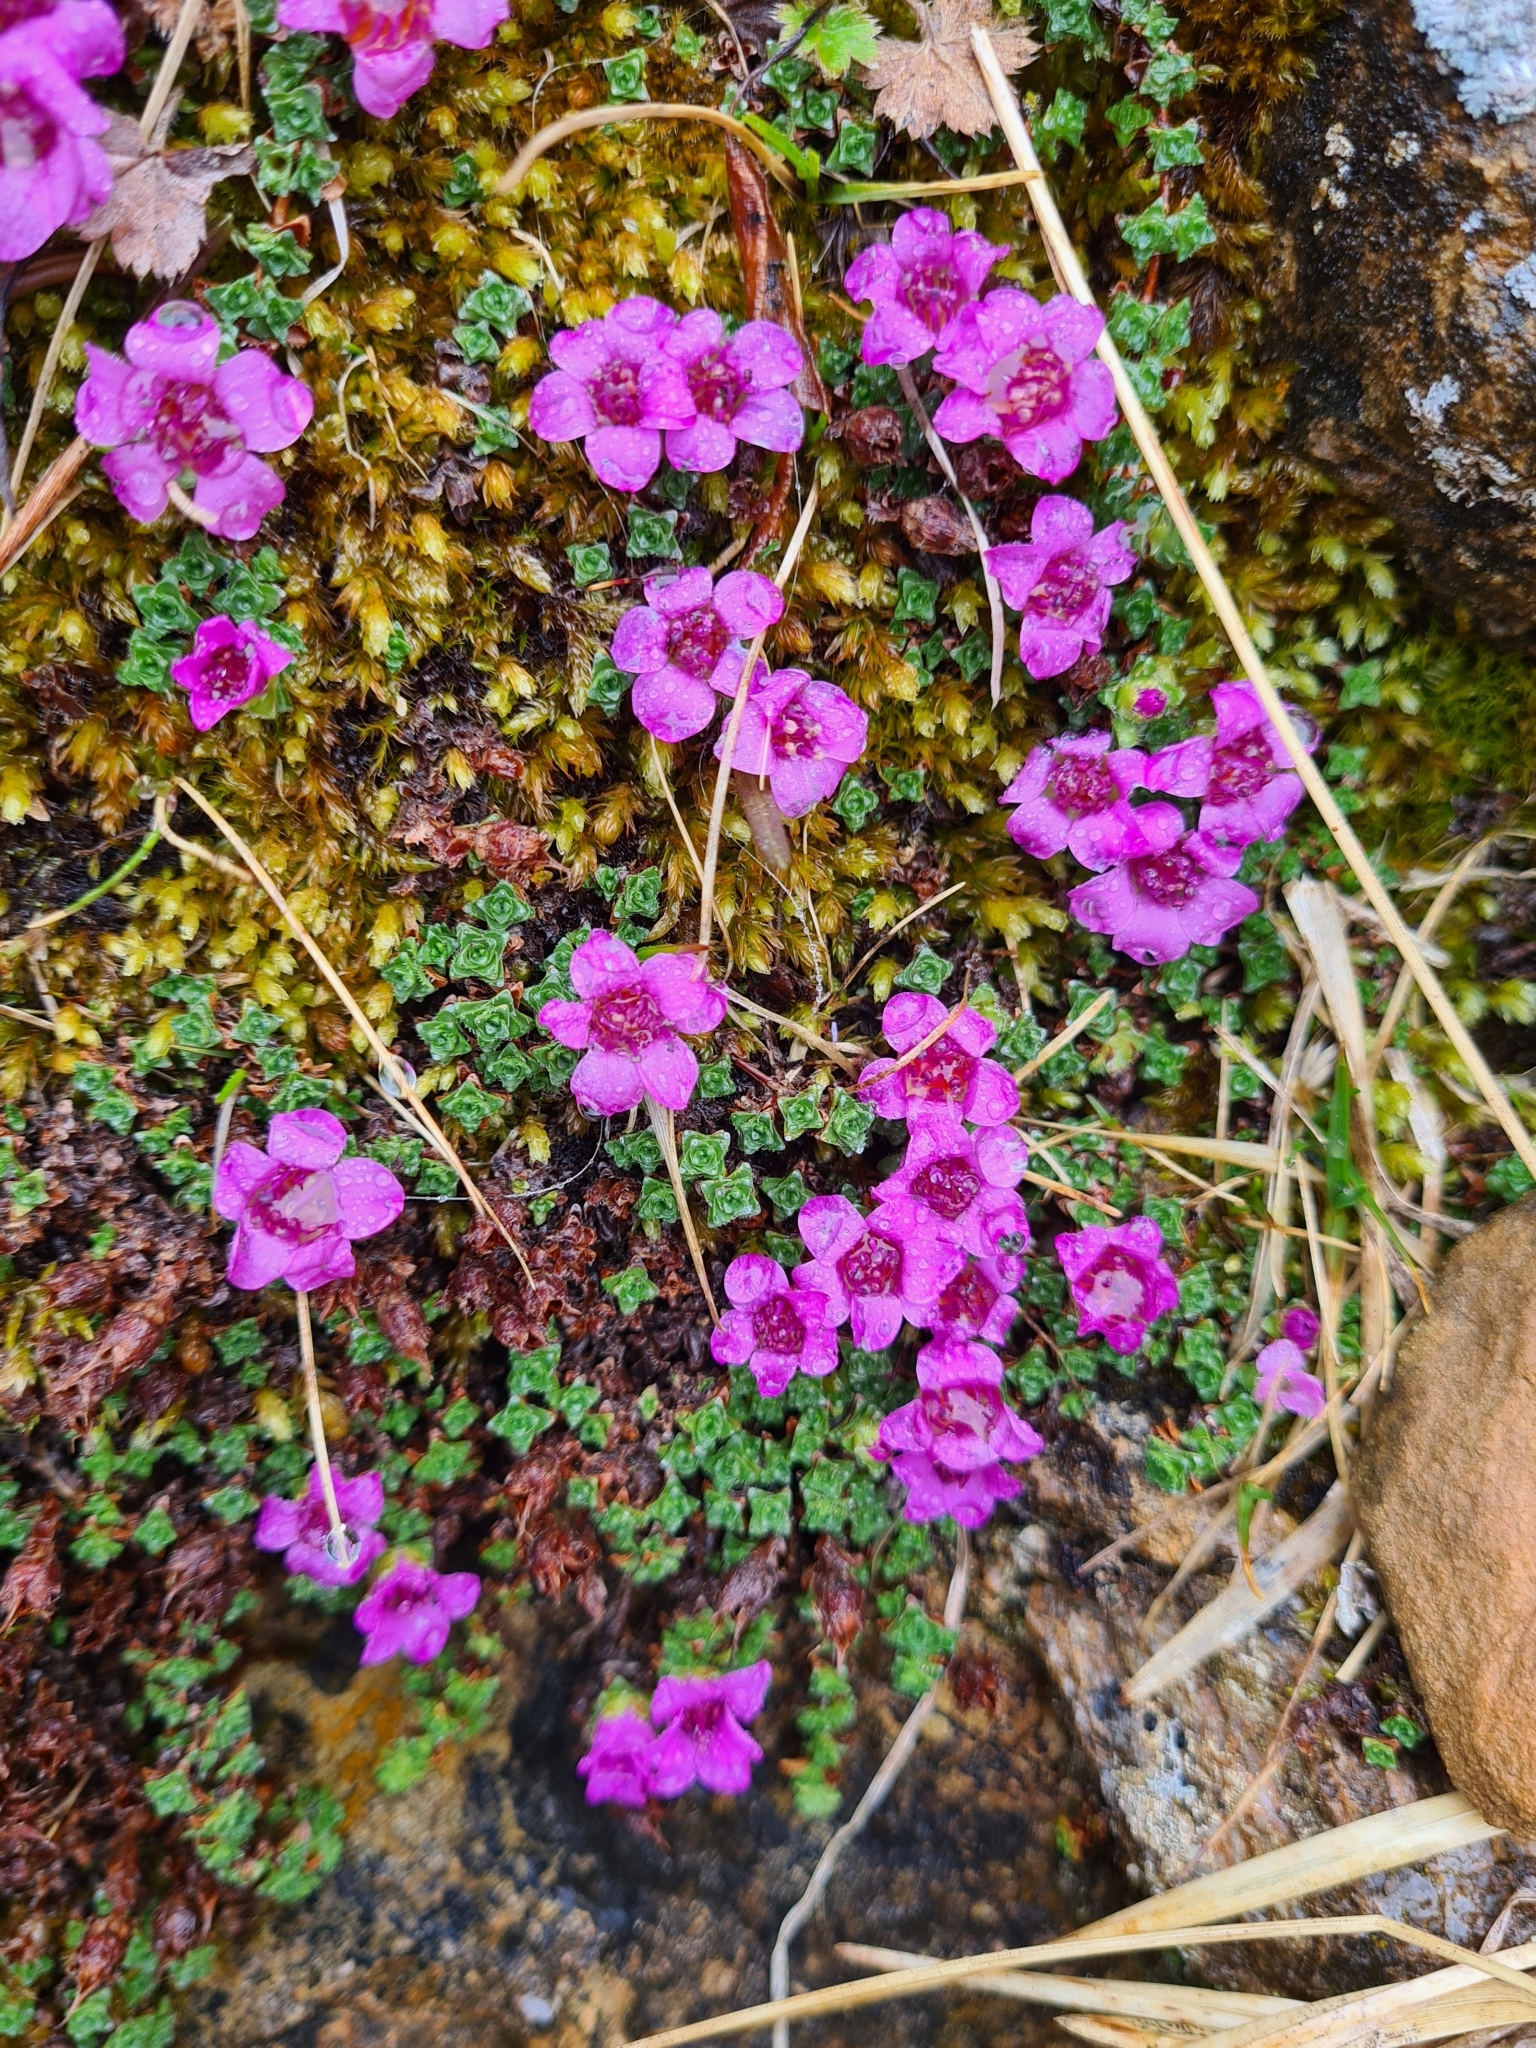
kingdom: Plantae
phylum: Tracheophyta
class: Magnoliopsida
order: Saxifragales
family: Saxifragaceae
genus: Saxifraga
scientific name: Saxifraga oppositifolia
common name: Purple saxifrage
